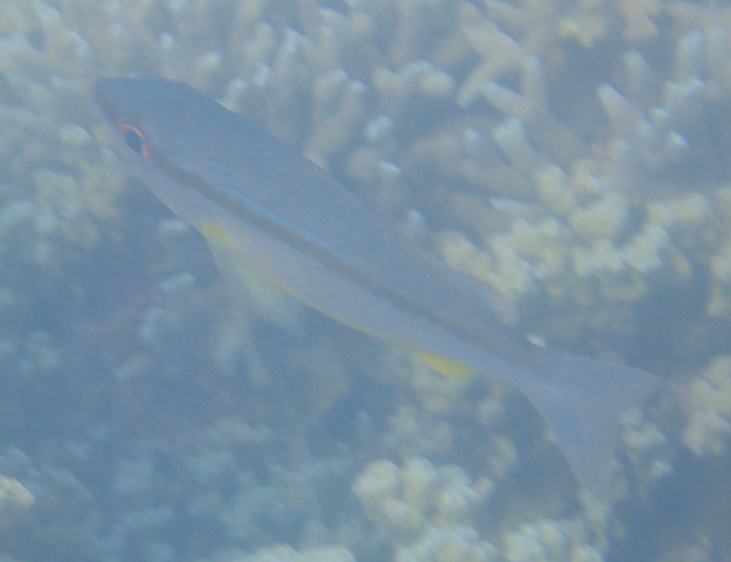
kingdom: Animalia
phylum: Chordata
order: Perciformes
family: Lutjanidae
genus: Lutjanus
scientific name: Lutjanus vitta
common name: Brownstripe red snapper
